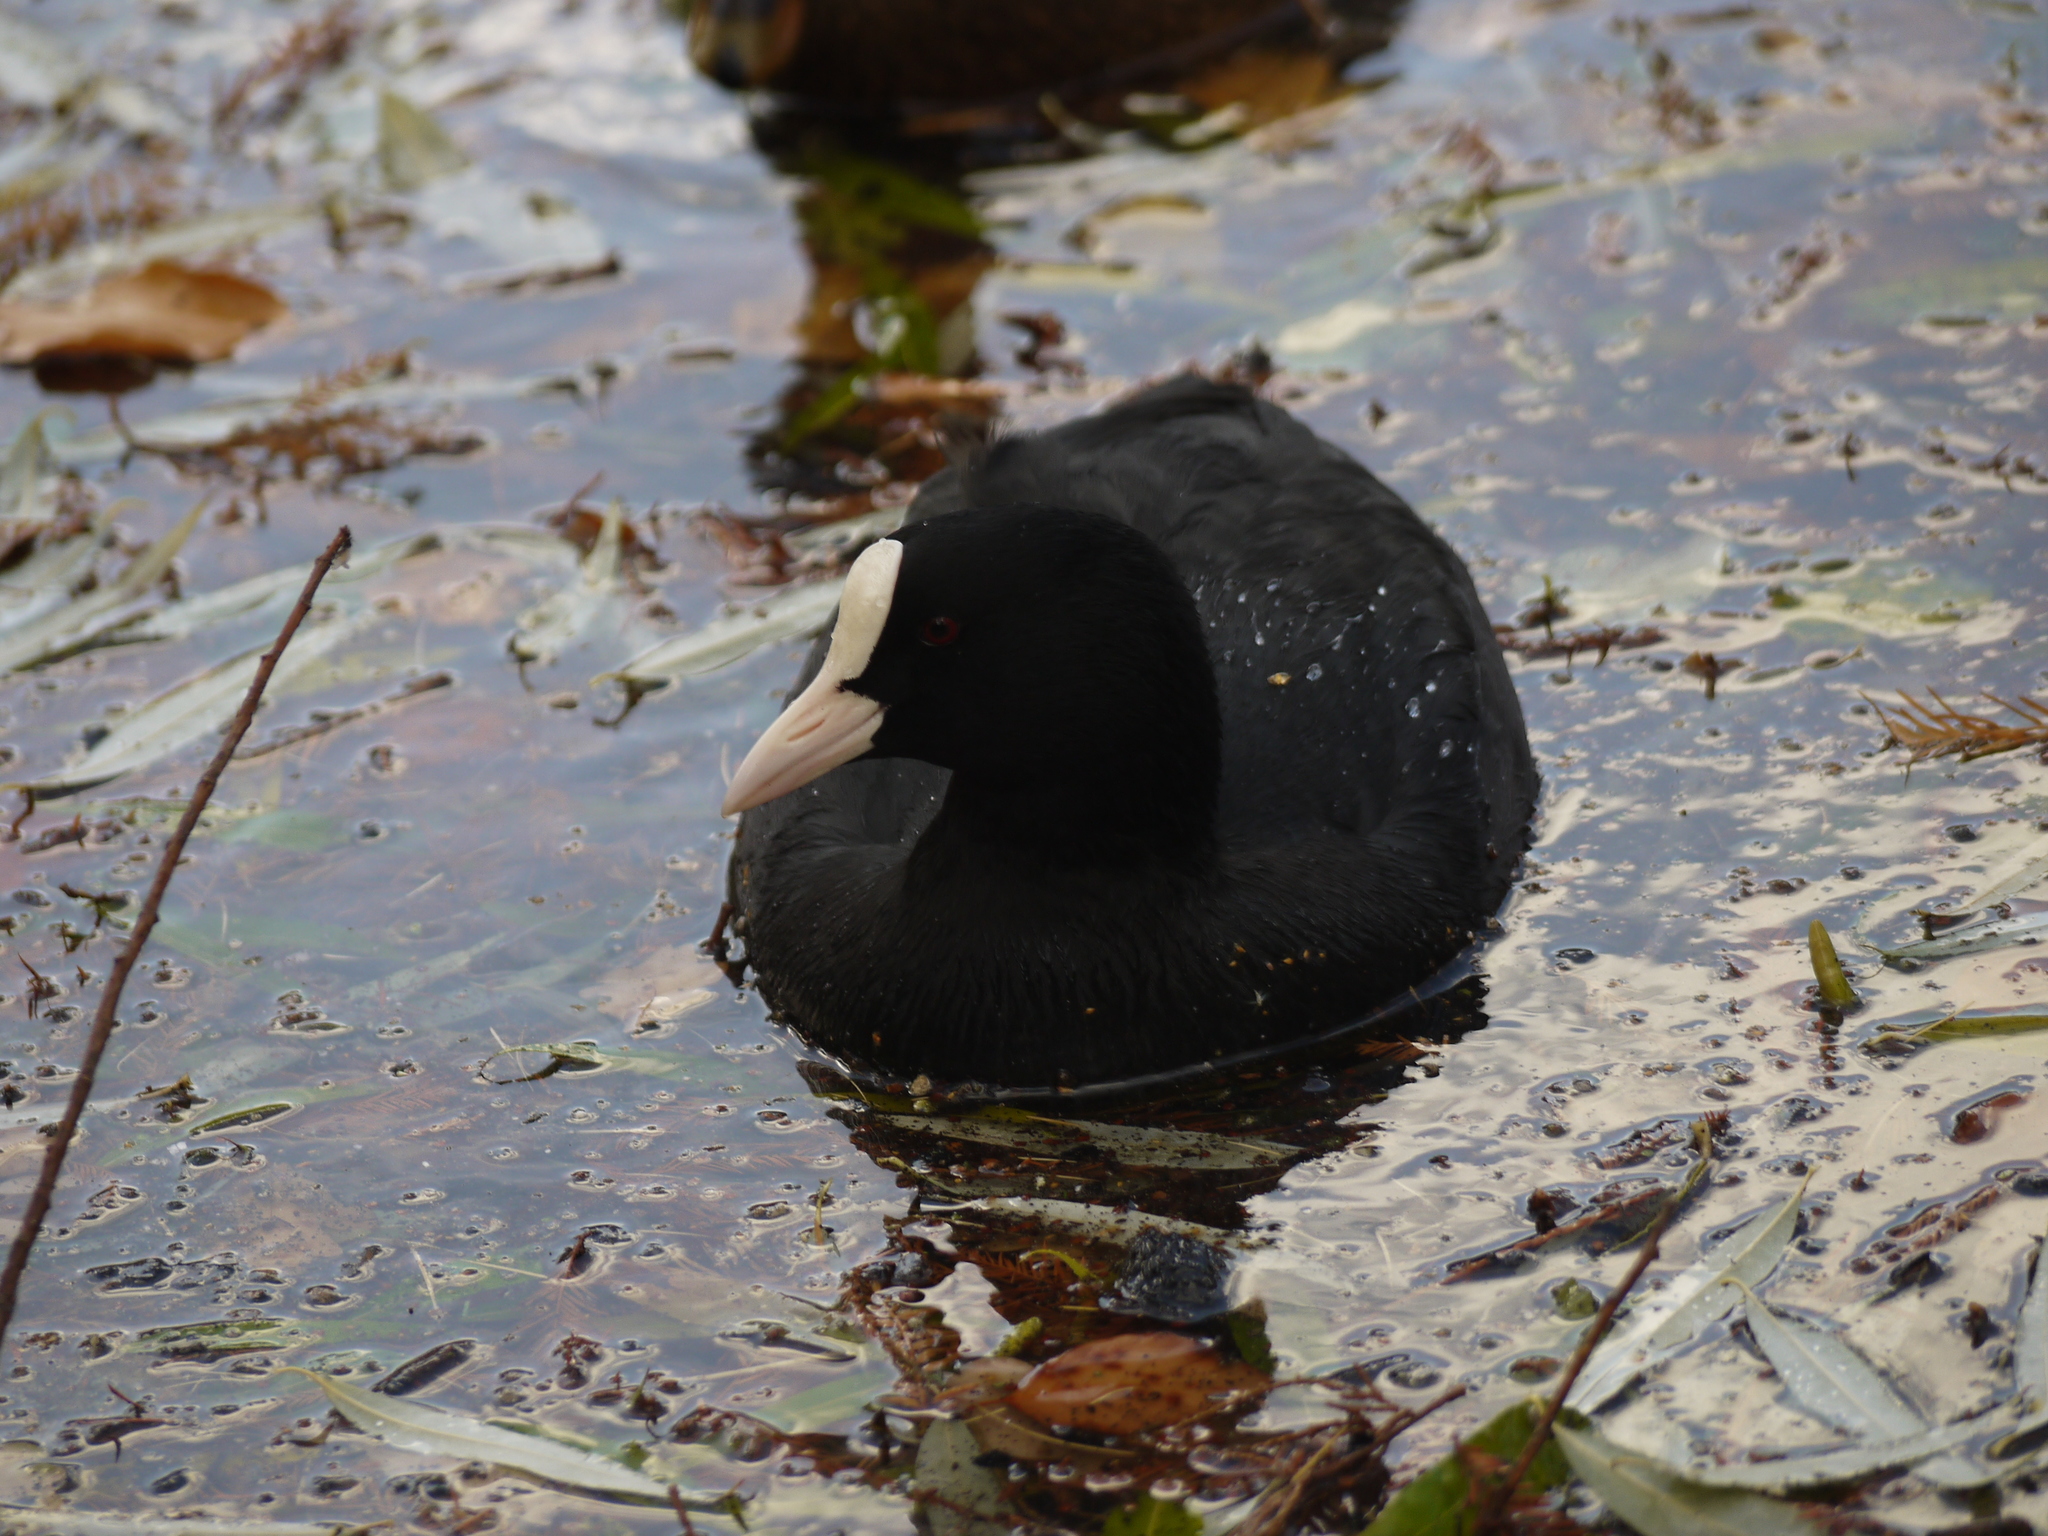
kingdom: Animalia
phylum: Chordata
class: Aves
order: Gruiformes
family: Rallidae
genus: Fulica
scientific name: Fulica atra
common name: Eurasian coot
